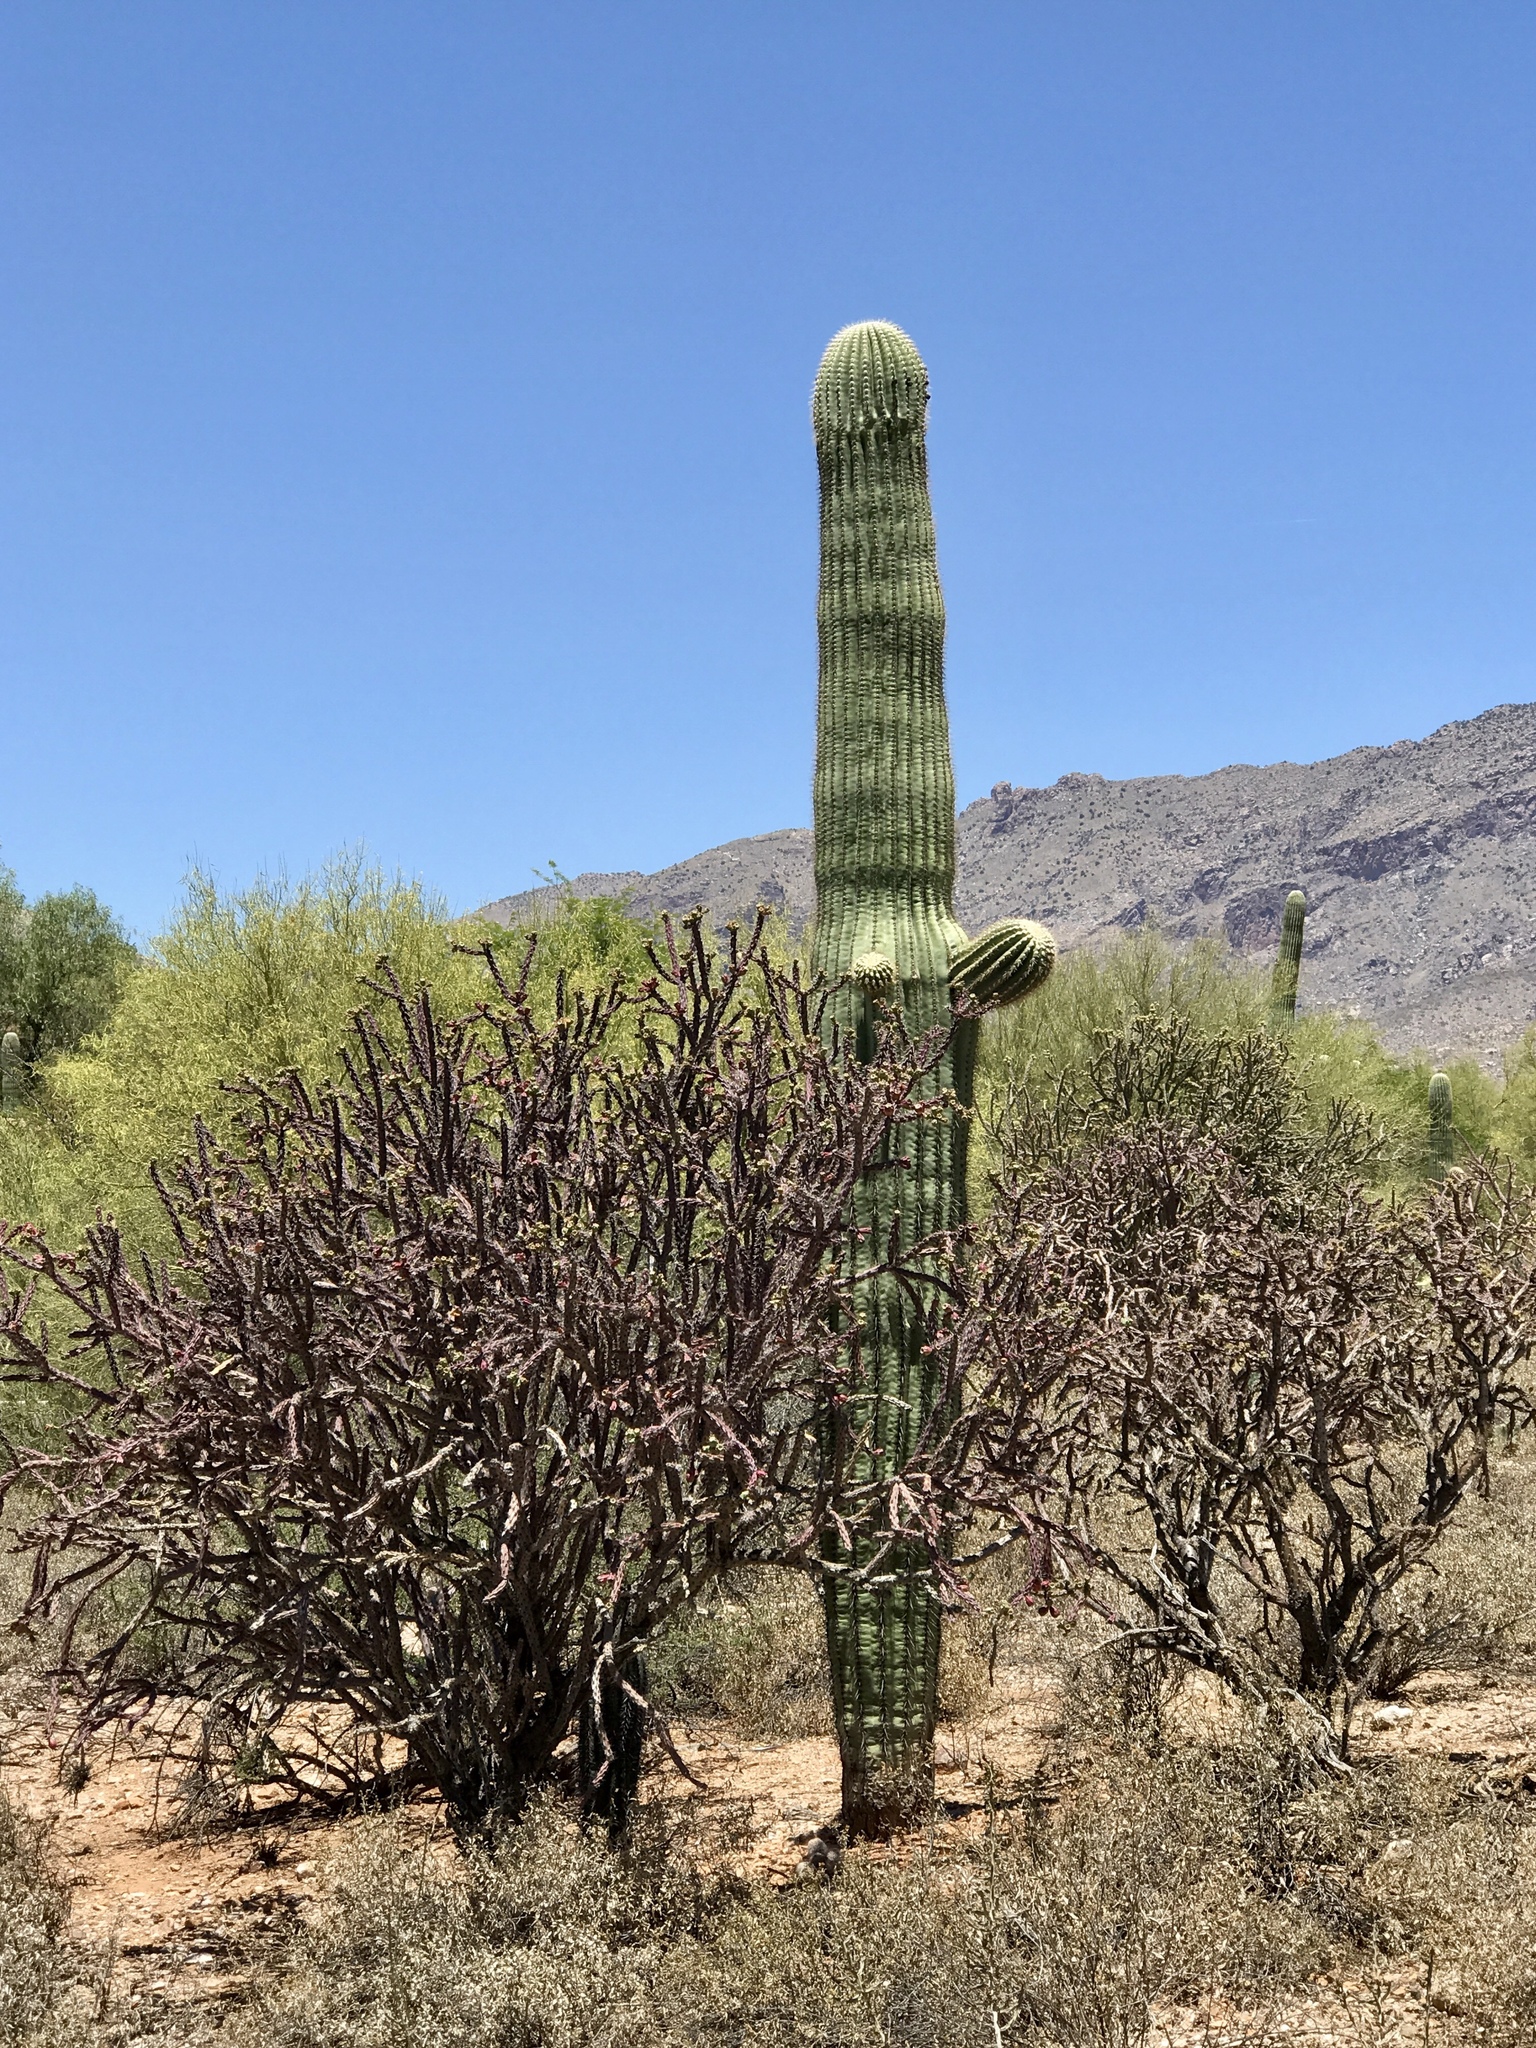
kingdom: Plantae
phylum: Tracheophyta
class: Magnoliopsida
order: Caryophyllales
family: Cactaceae
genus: Cylindropuntia
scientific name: Cylindropuntia thurberi
